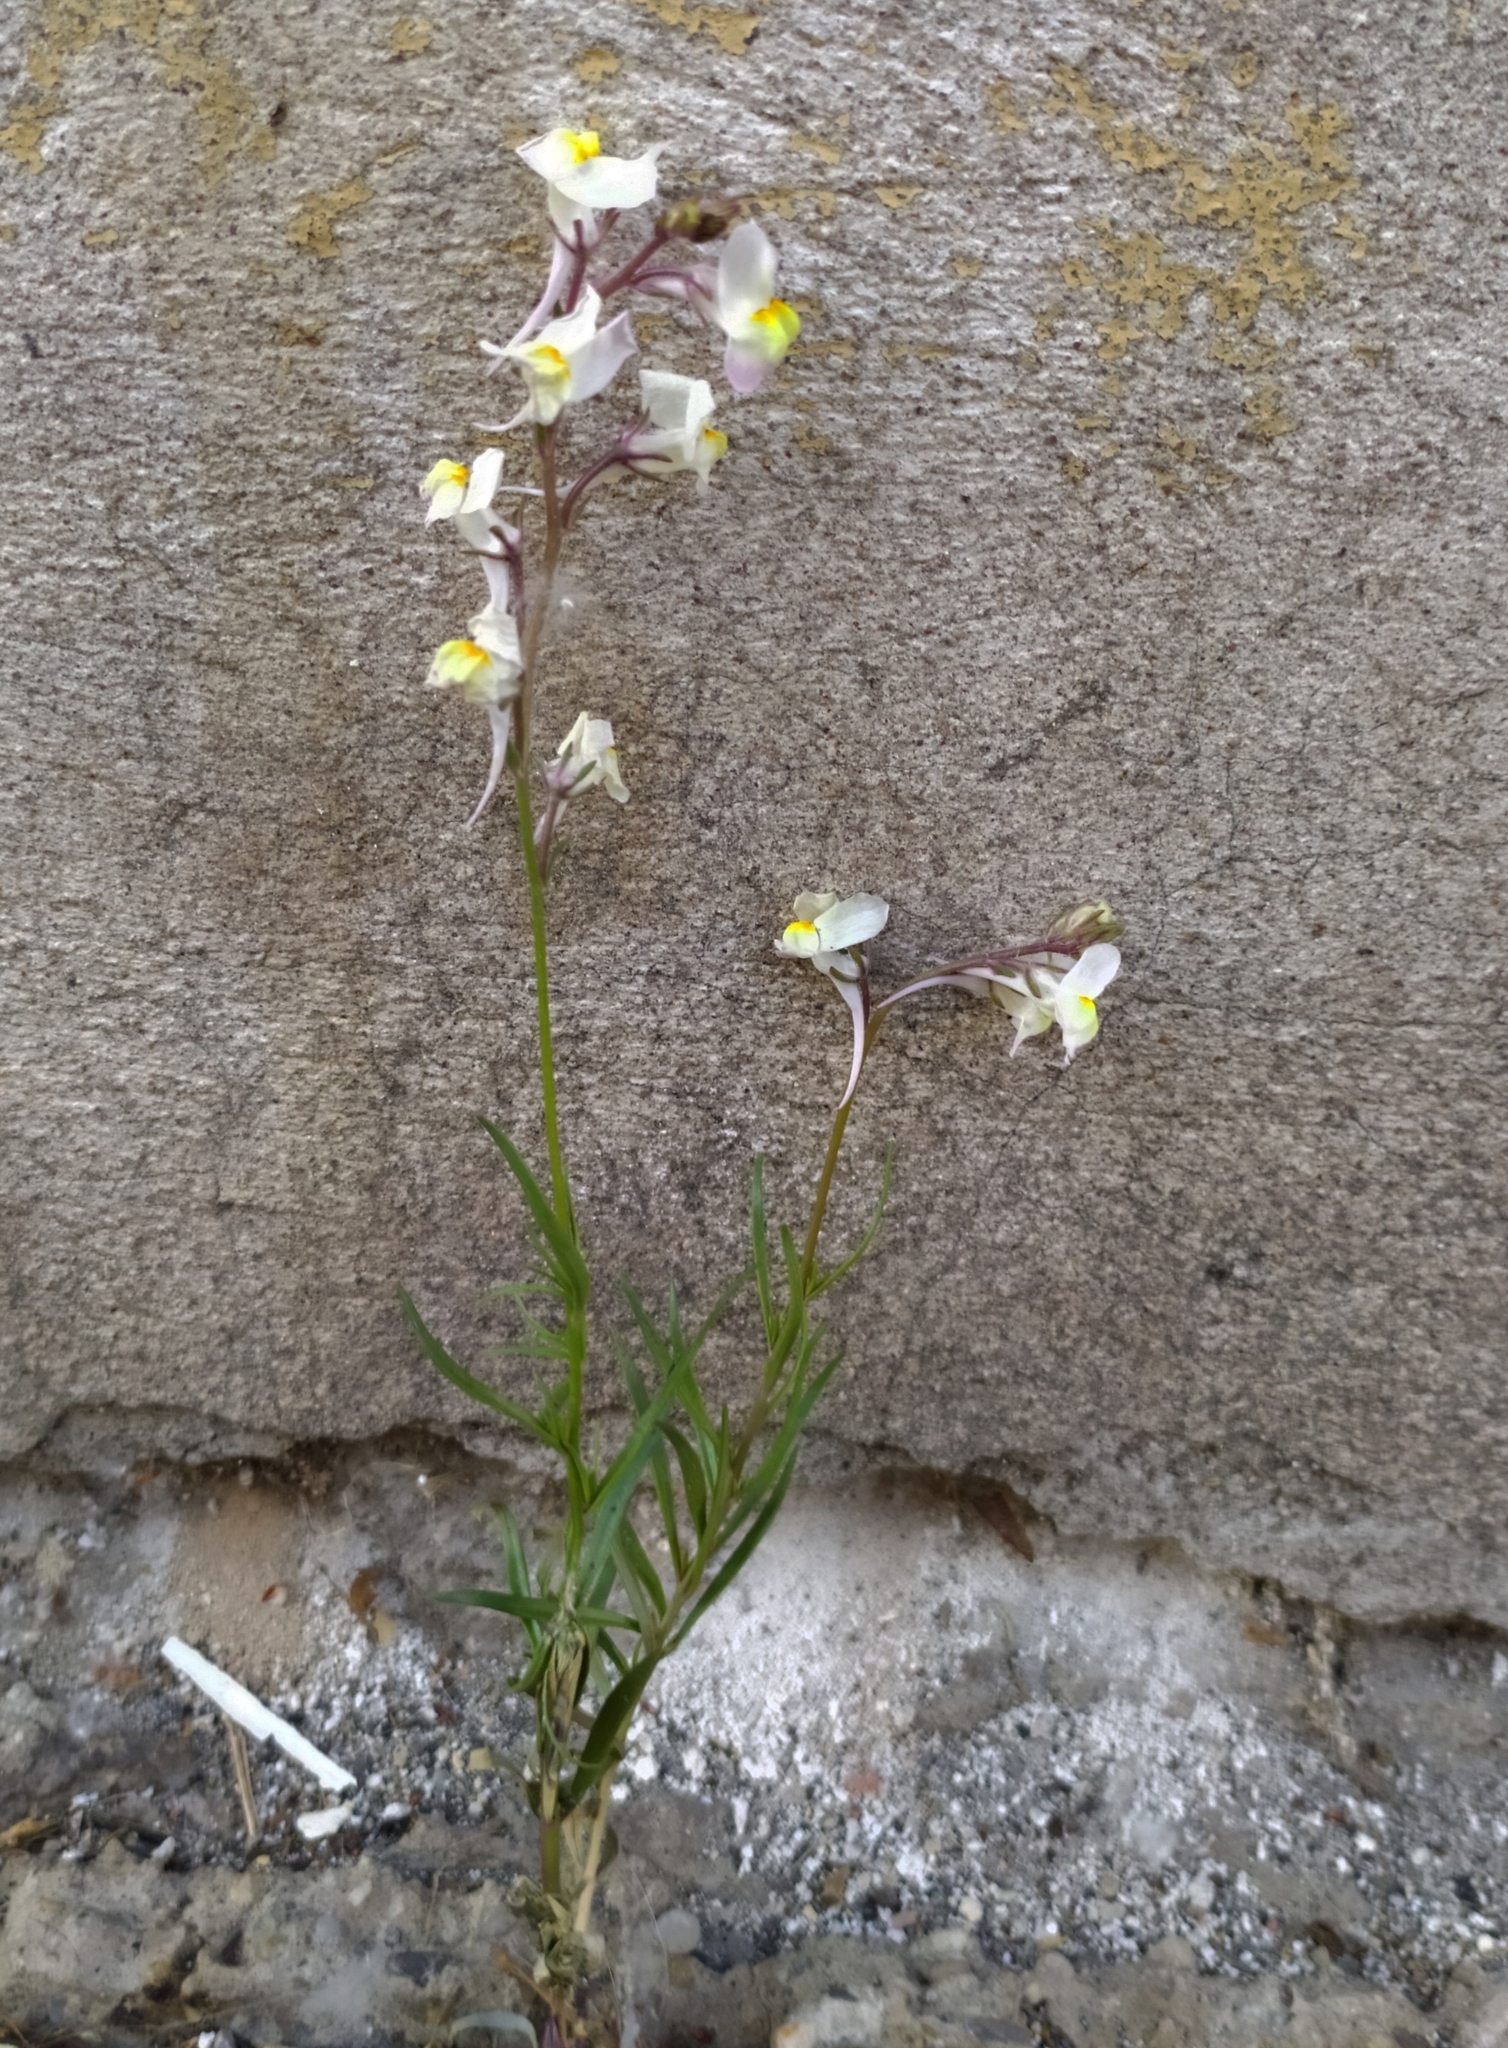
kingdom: Plantae
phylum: Tracheophyta
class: Magnoliopsida
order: Lamiales
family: Plantaginaceae
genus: Linaria
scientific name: Linaria maroccana
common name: Moroccan toadflax
